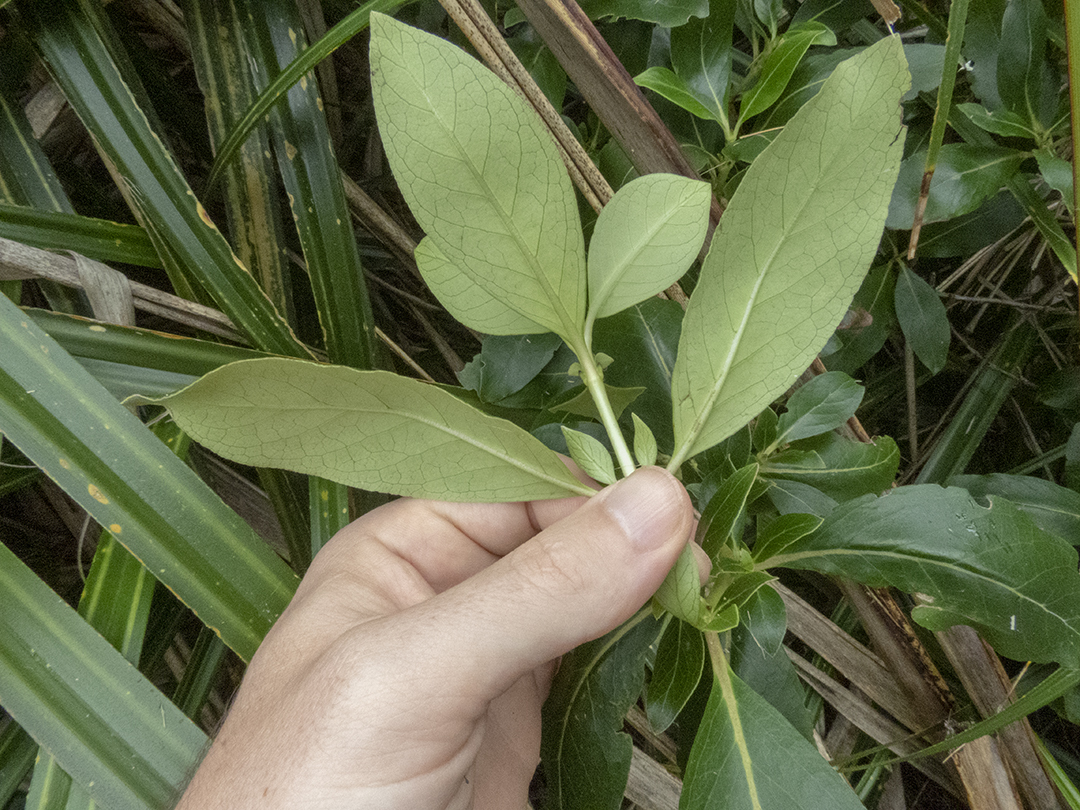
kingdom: Plantae
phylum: Tracheophyta
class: Magnoliopsida
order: Gentianales
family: Rubiaceae
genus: Coprosma
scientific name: Coprosma robusta
